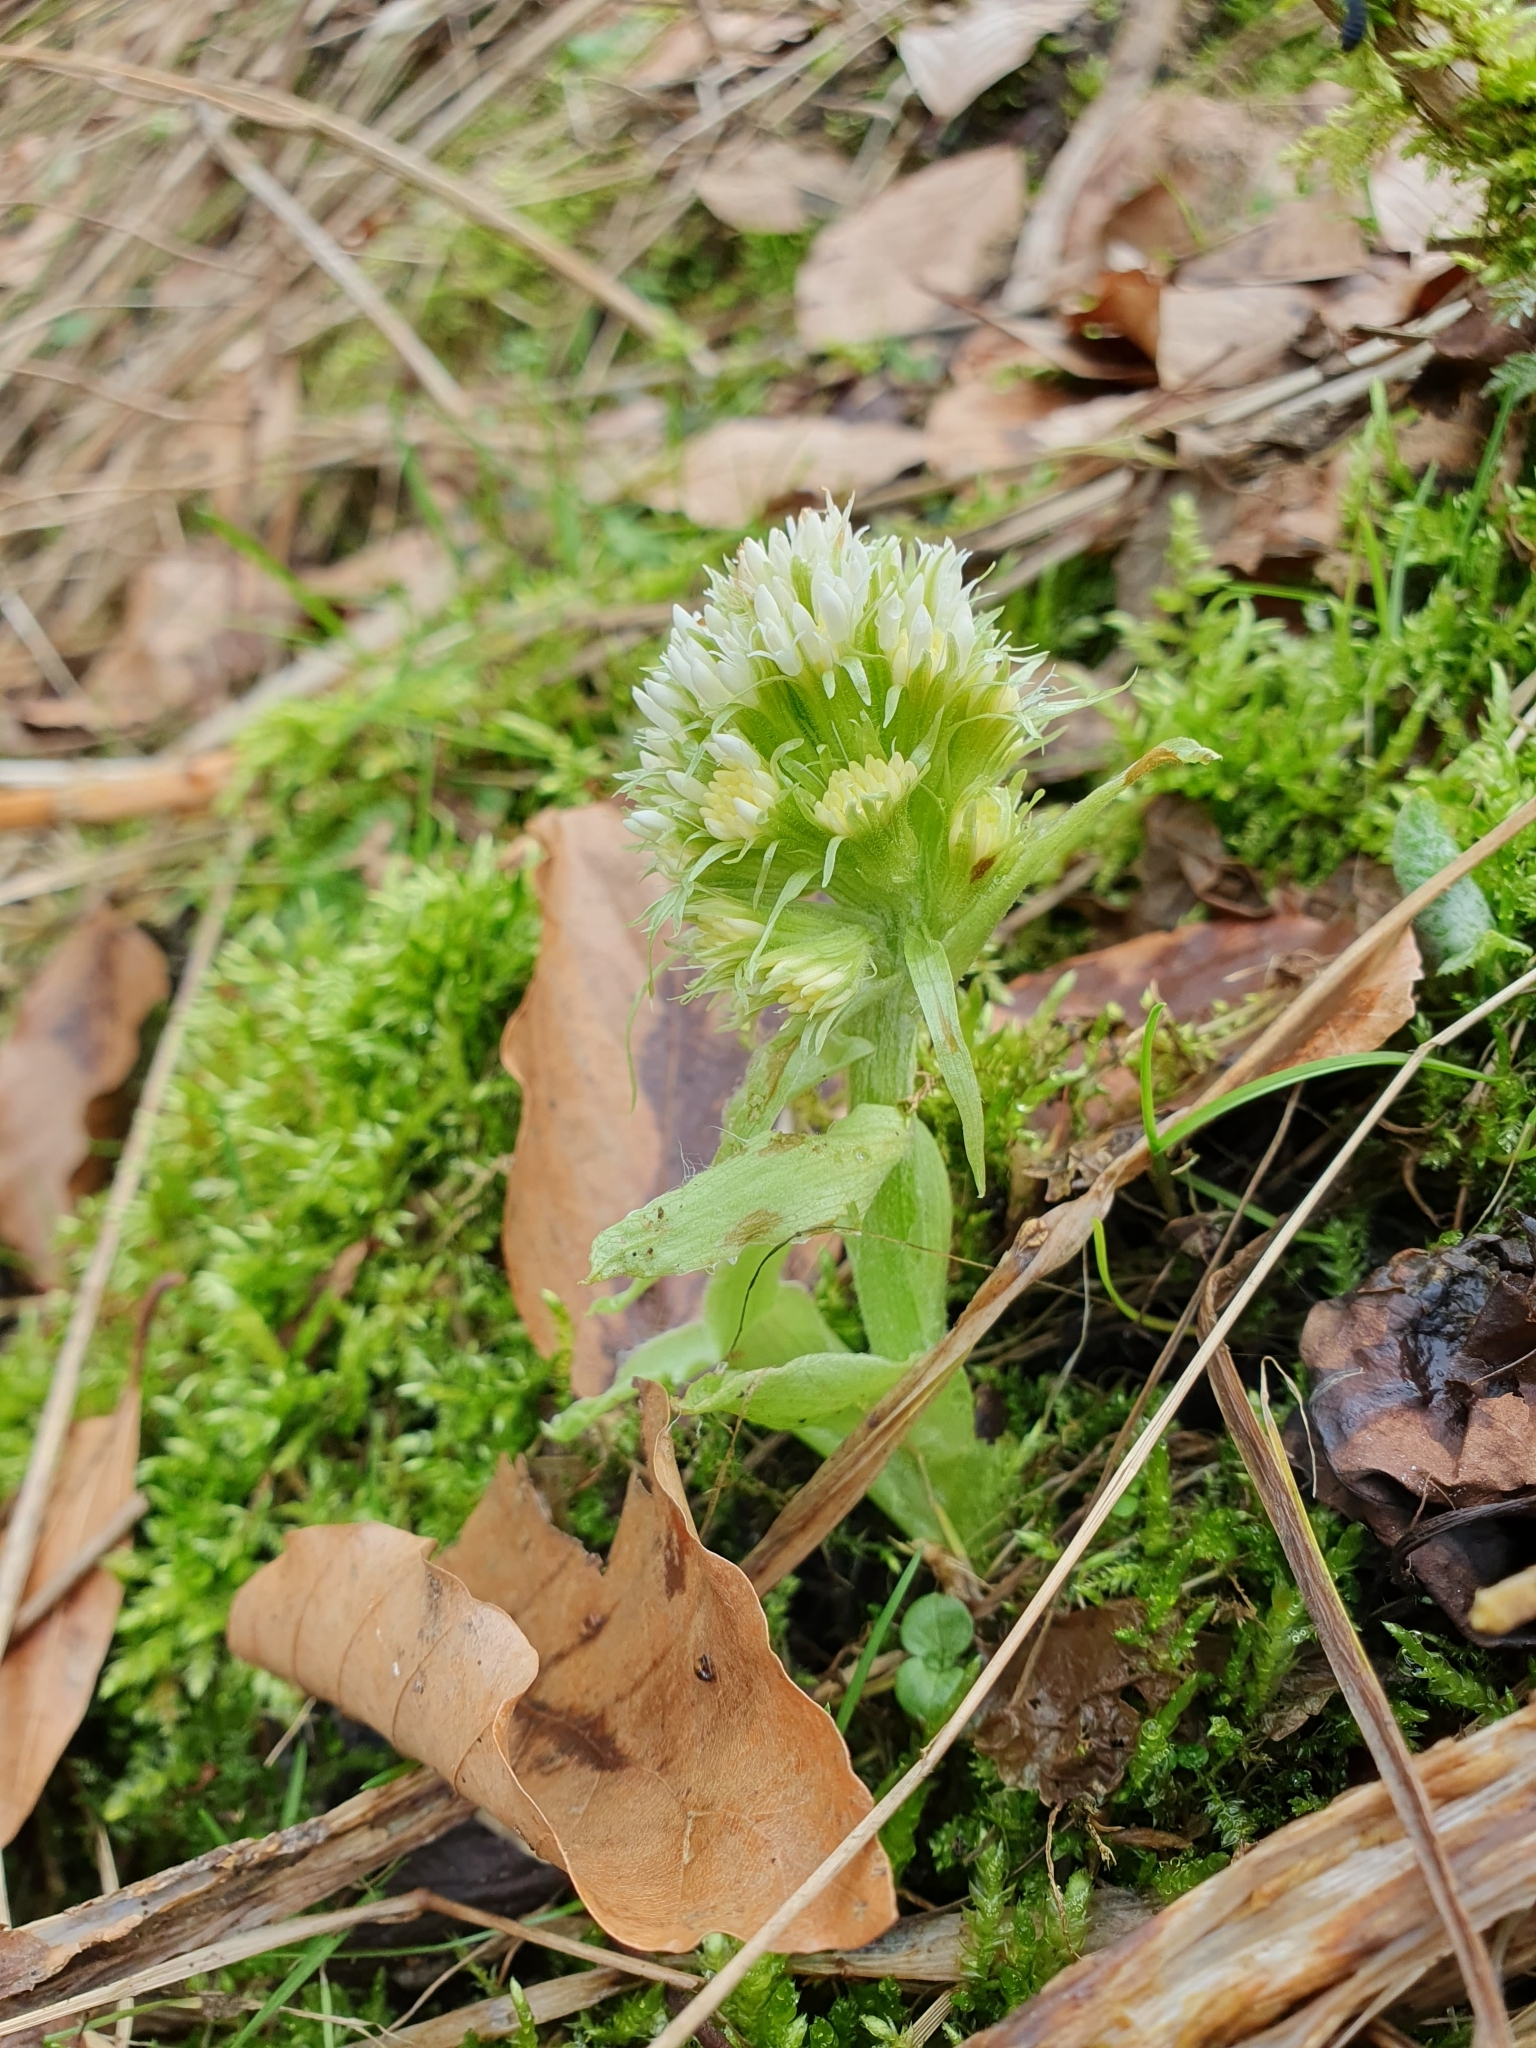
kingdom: Plantae
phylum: Tracheophyta
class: Magnoliopsida
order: Asterales
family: Asteraceae
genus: Petasites
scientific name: Petasites albus
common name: White butterbur
